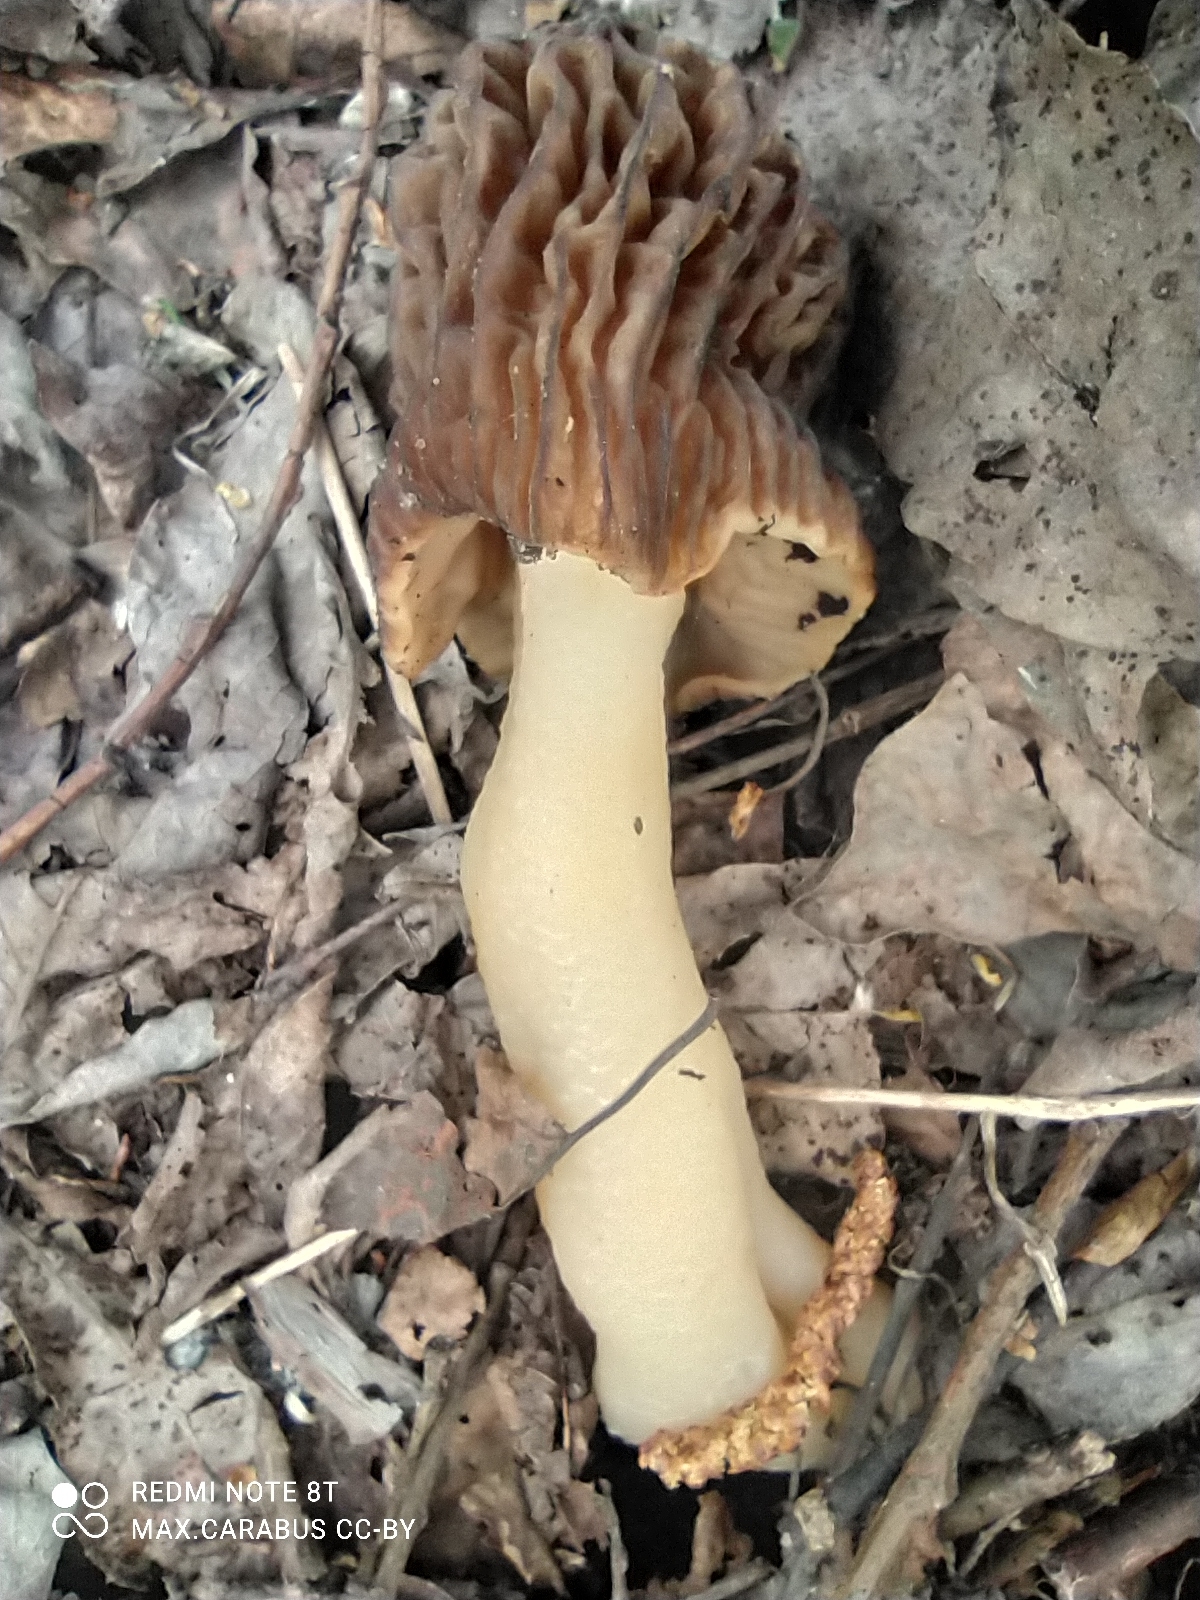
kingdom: Fungi
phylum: Ascomycota
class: Pezizomycetes
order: Pezizales
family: Morchellaceae
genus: Verpa
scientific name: Verpa bohemica
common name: Wrinkled thimble morel
